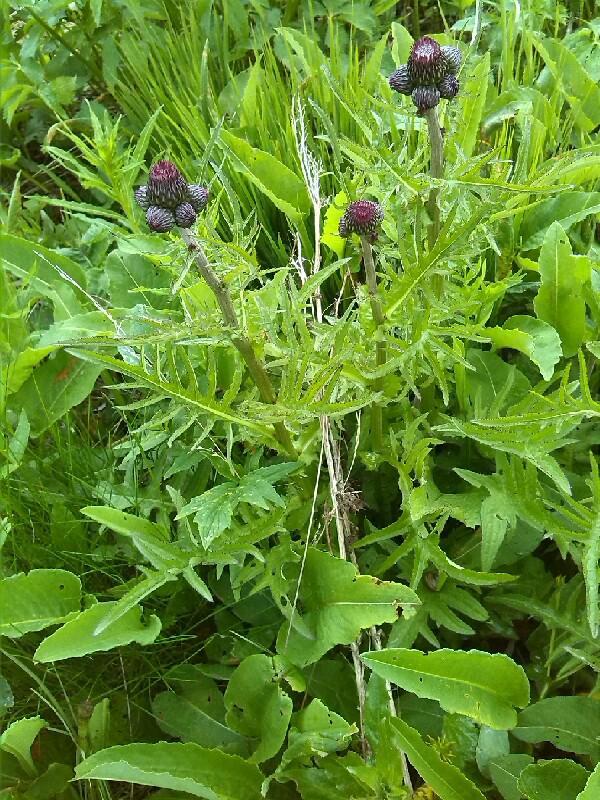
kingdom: Plantae
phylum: Tracheophyta
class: Magnoliopsida
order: Asterales
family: Asteraceae
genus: Cirsium
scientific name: Cirsium rivulare
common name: Brook thistle
